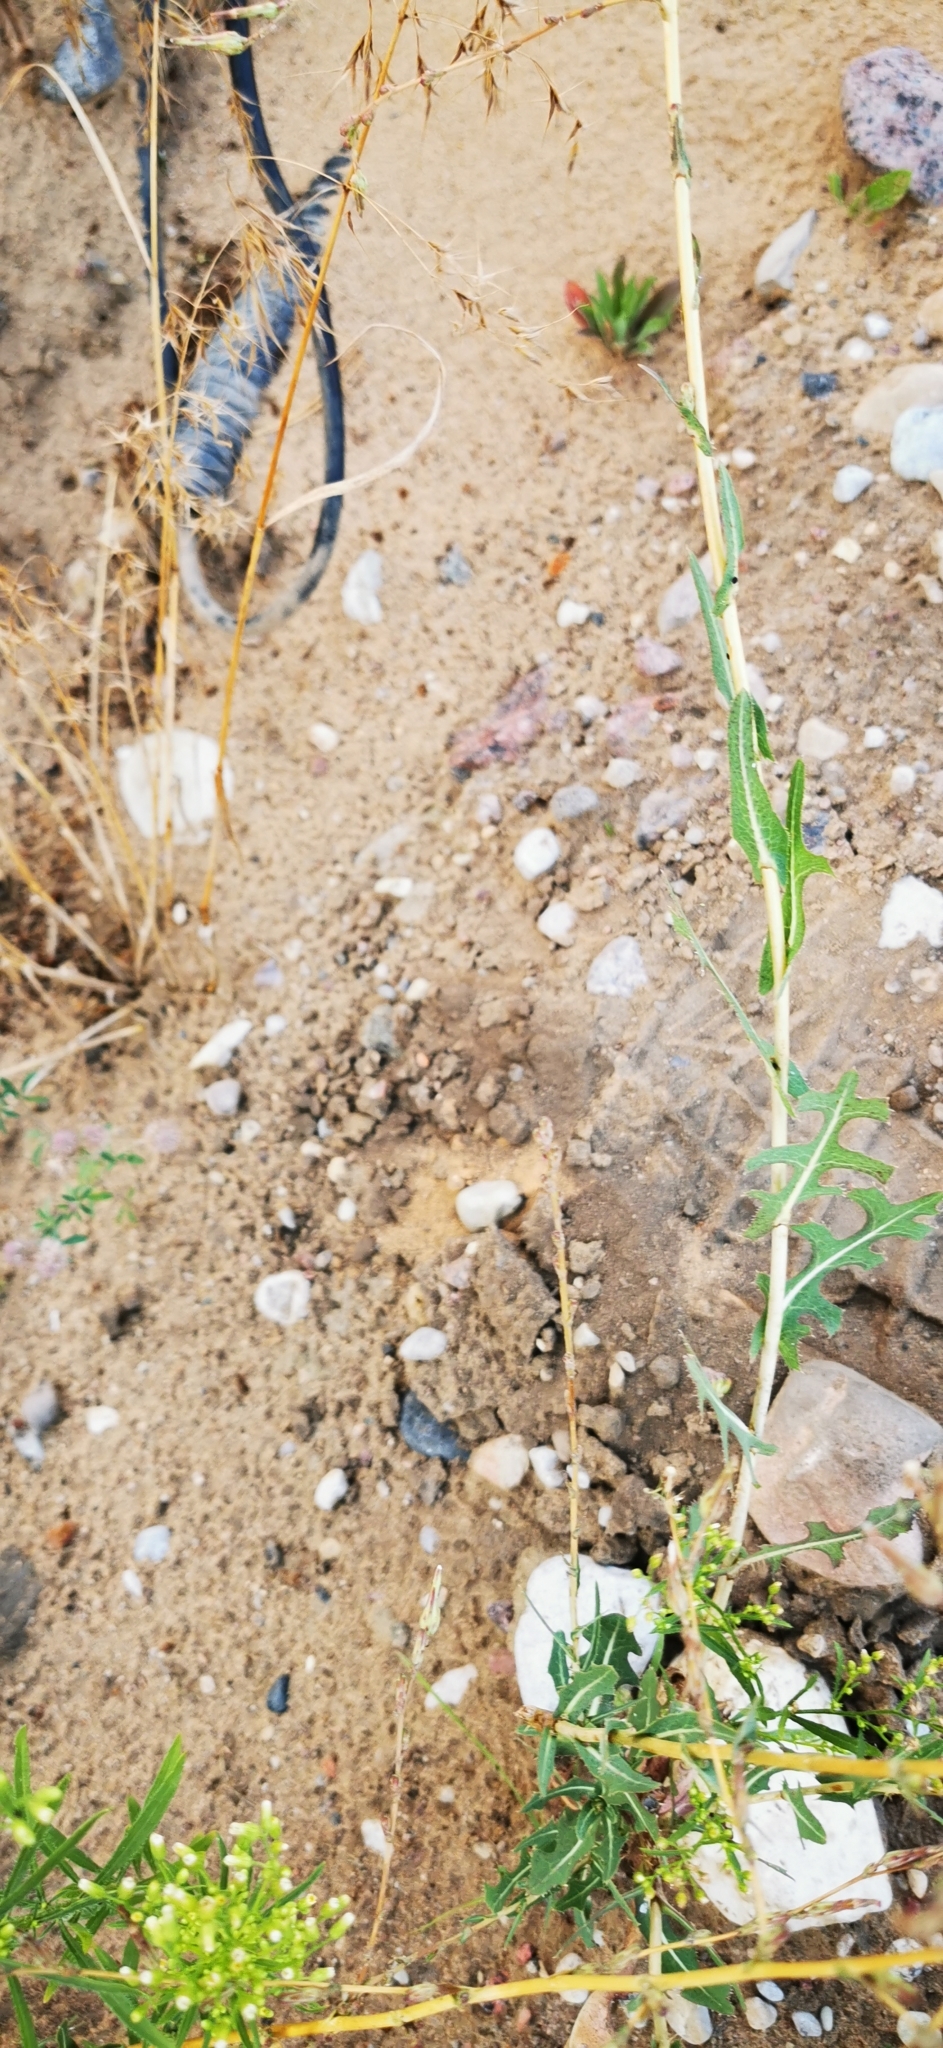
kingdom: Plantae
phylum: Tracheophyta
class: Magnoliopsida
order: Asterales
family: Asteraceae
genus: Lactuca
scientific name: Lactuca serriola
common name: Prickly lettuce
